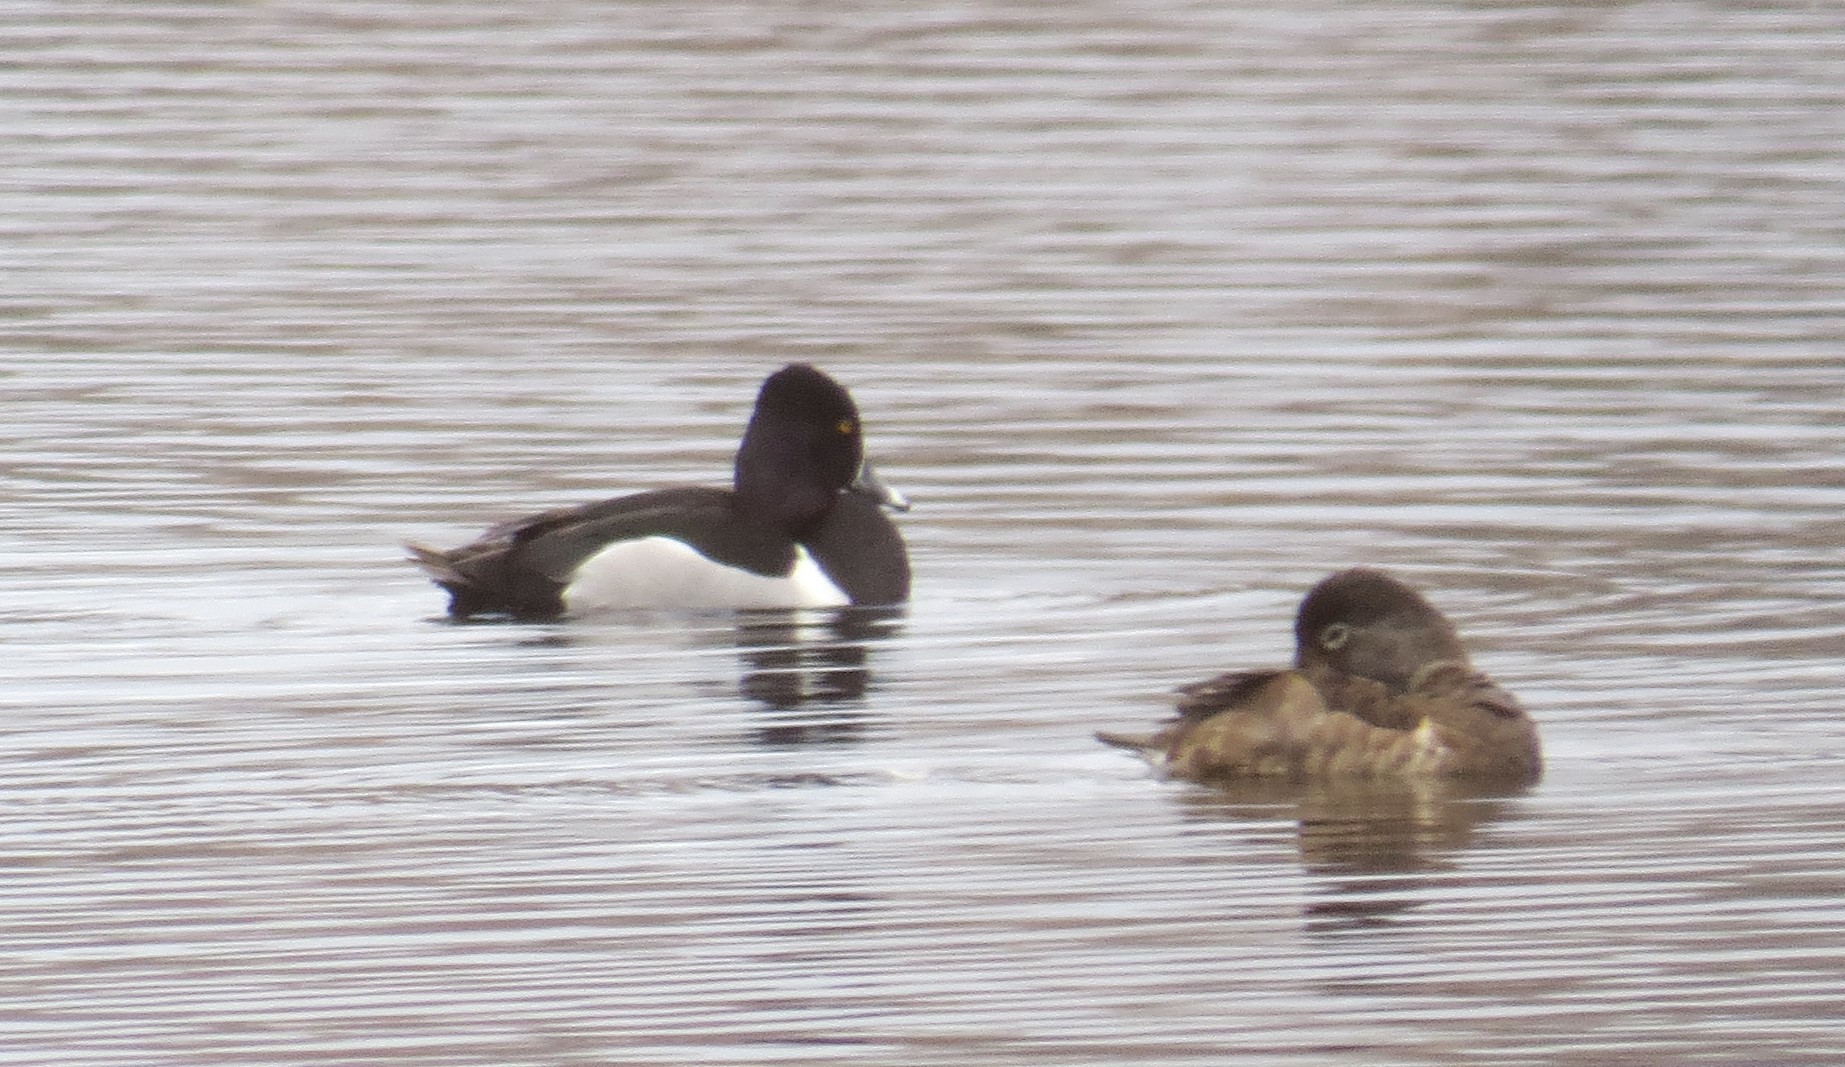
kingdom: Animalia
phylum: Chordata
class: Aves
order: Anseriformes
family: Anatidae
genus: Aythya
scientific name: Aythya collaris
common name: Ring-necked duck
